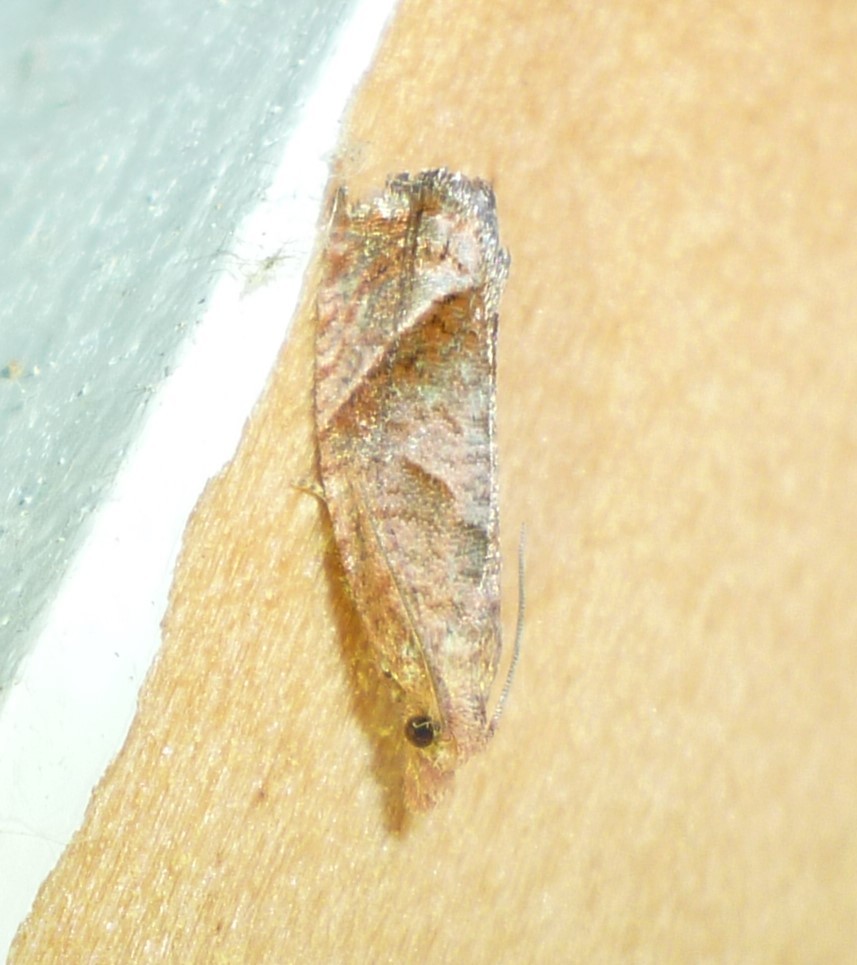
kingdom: Animalia
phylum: Arthropoda
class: Insecta
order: Lepidoptera
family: Tortricidae
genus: Pelochrista
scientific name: Pelochrista derelicta
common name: Derelict pelochrista moth
